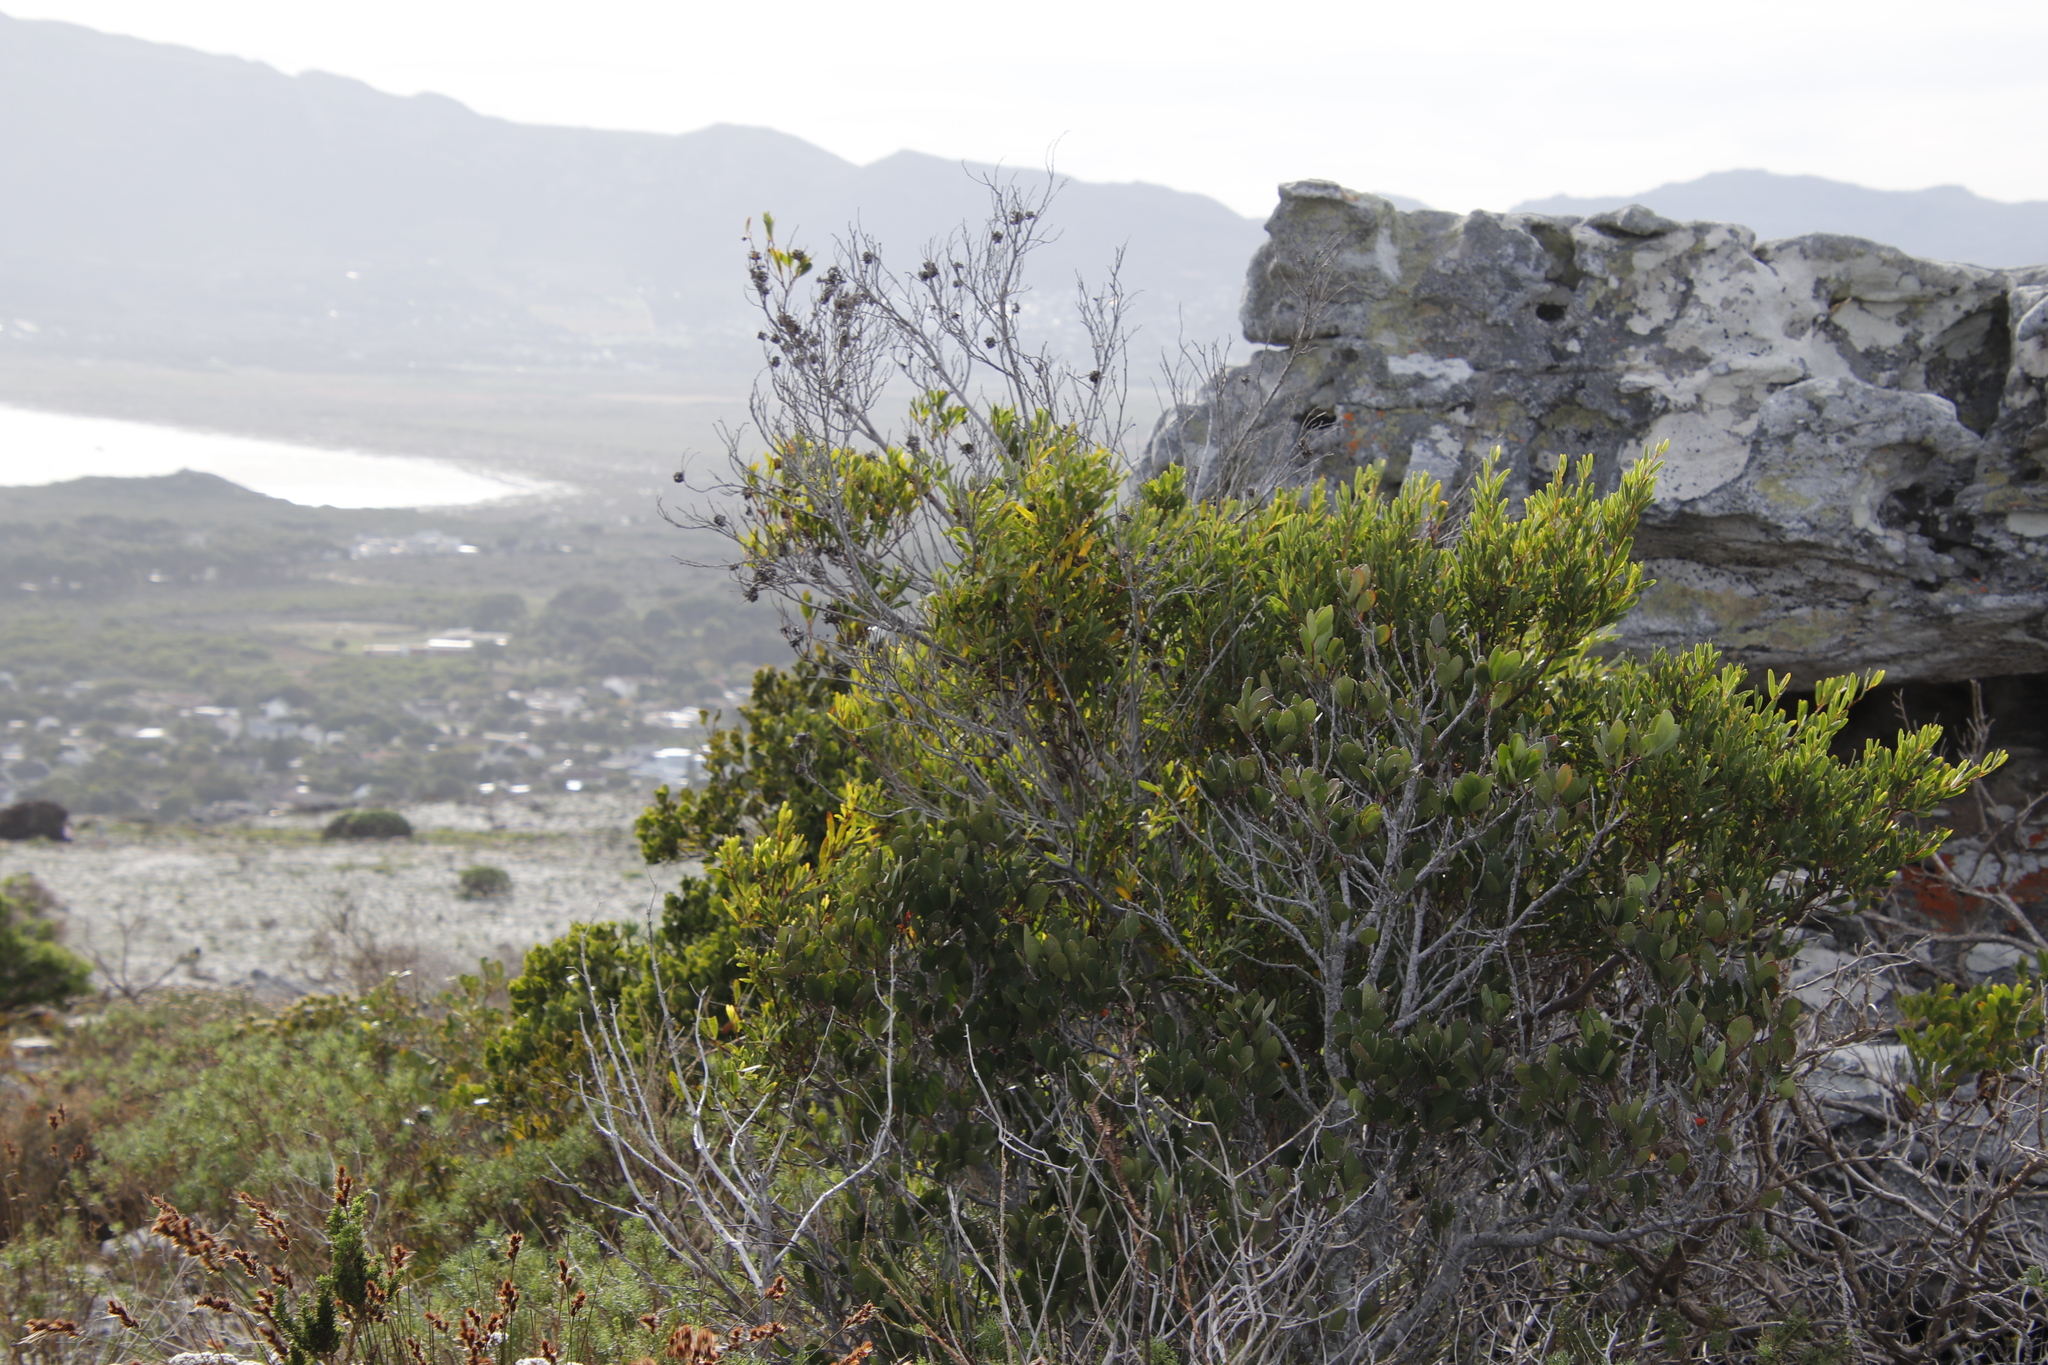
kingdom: Plantae
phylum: Tracheophyta
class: Magnoliopsida
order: Fabales
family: Fabaceae
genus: Acacia
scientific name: Acacia cyclops
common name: Coastal wattle
